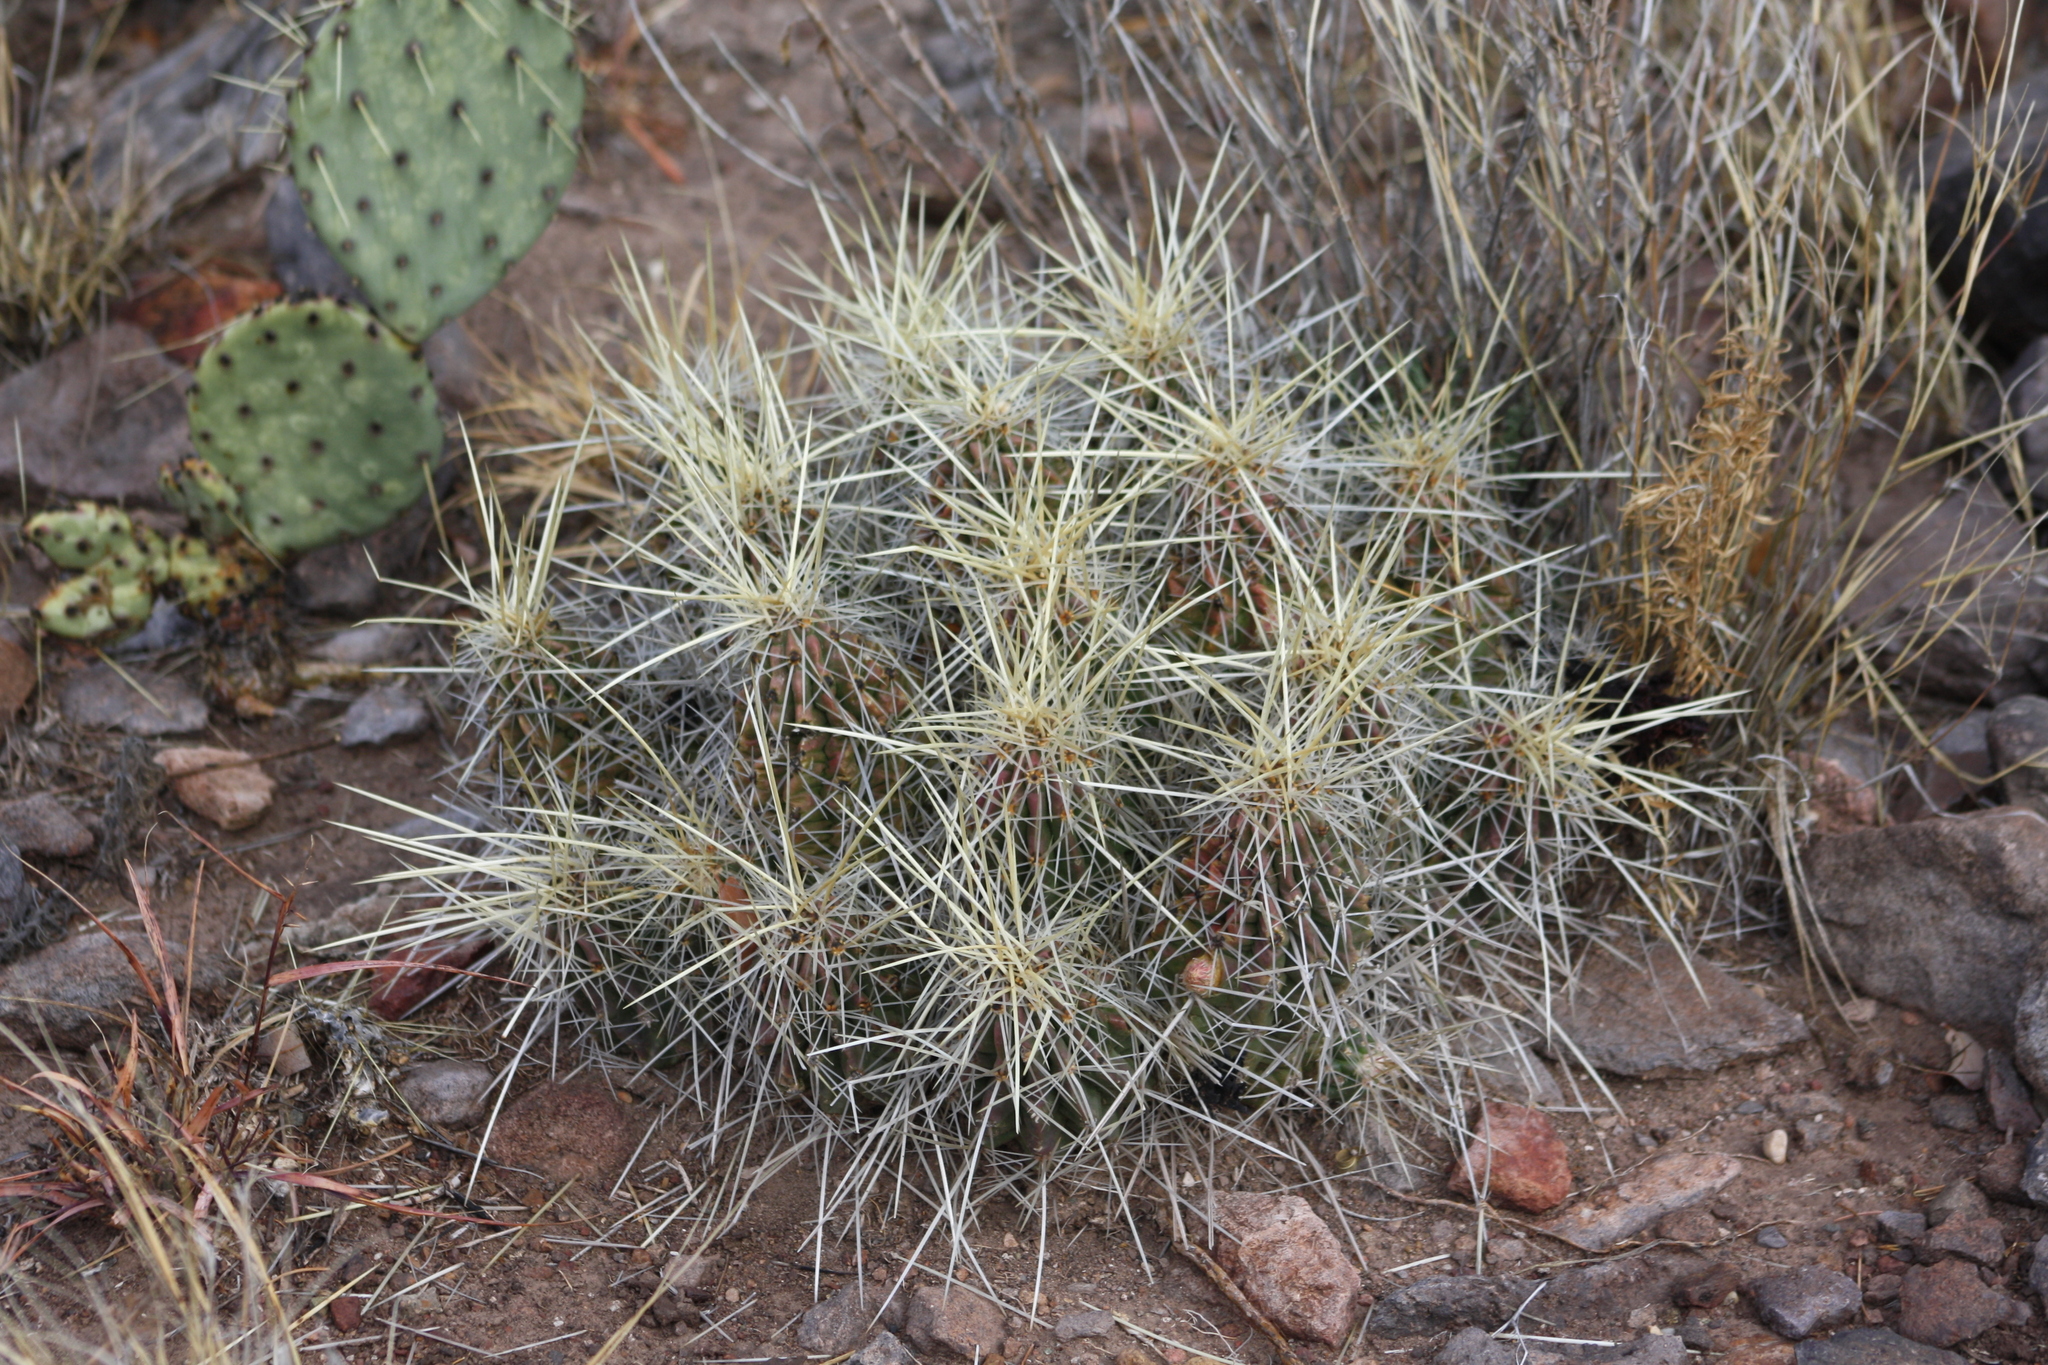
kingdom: Plantae
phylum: Tracheophyta
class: Magnoliopsida
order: Caryophyllales
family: Cactaceae
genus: Echinocereus
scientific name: Echinocereus stramineus
